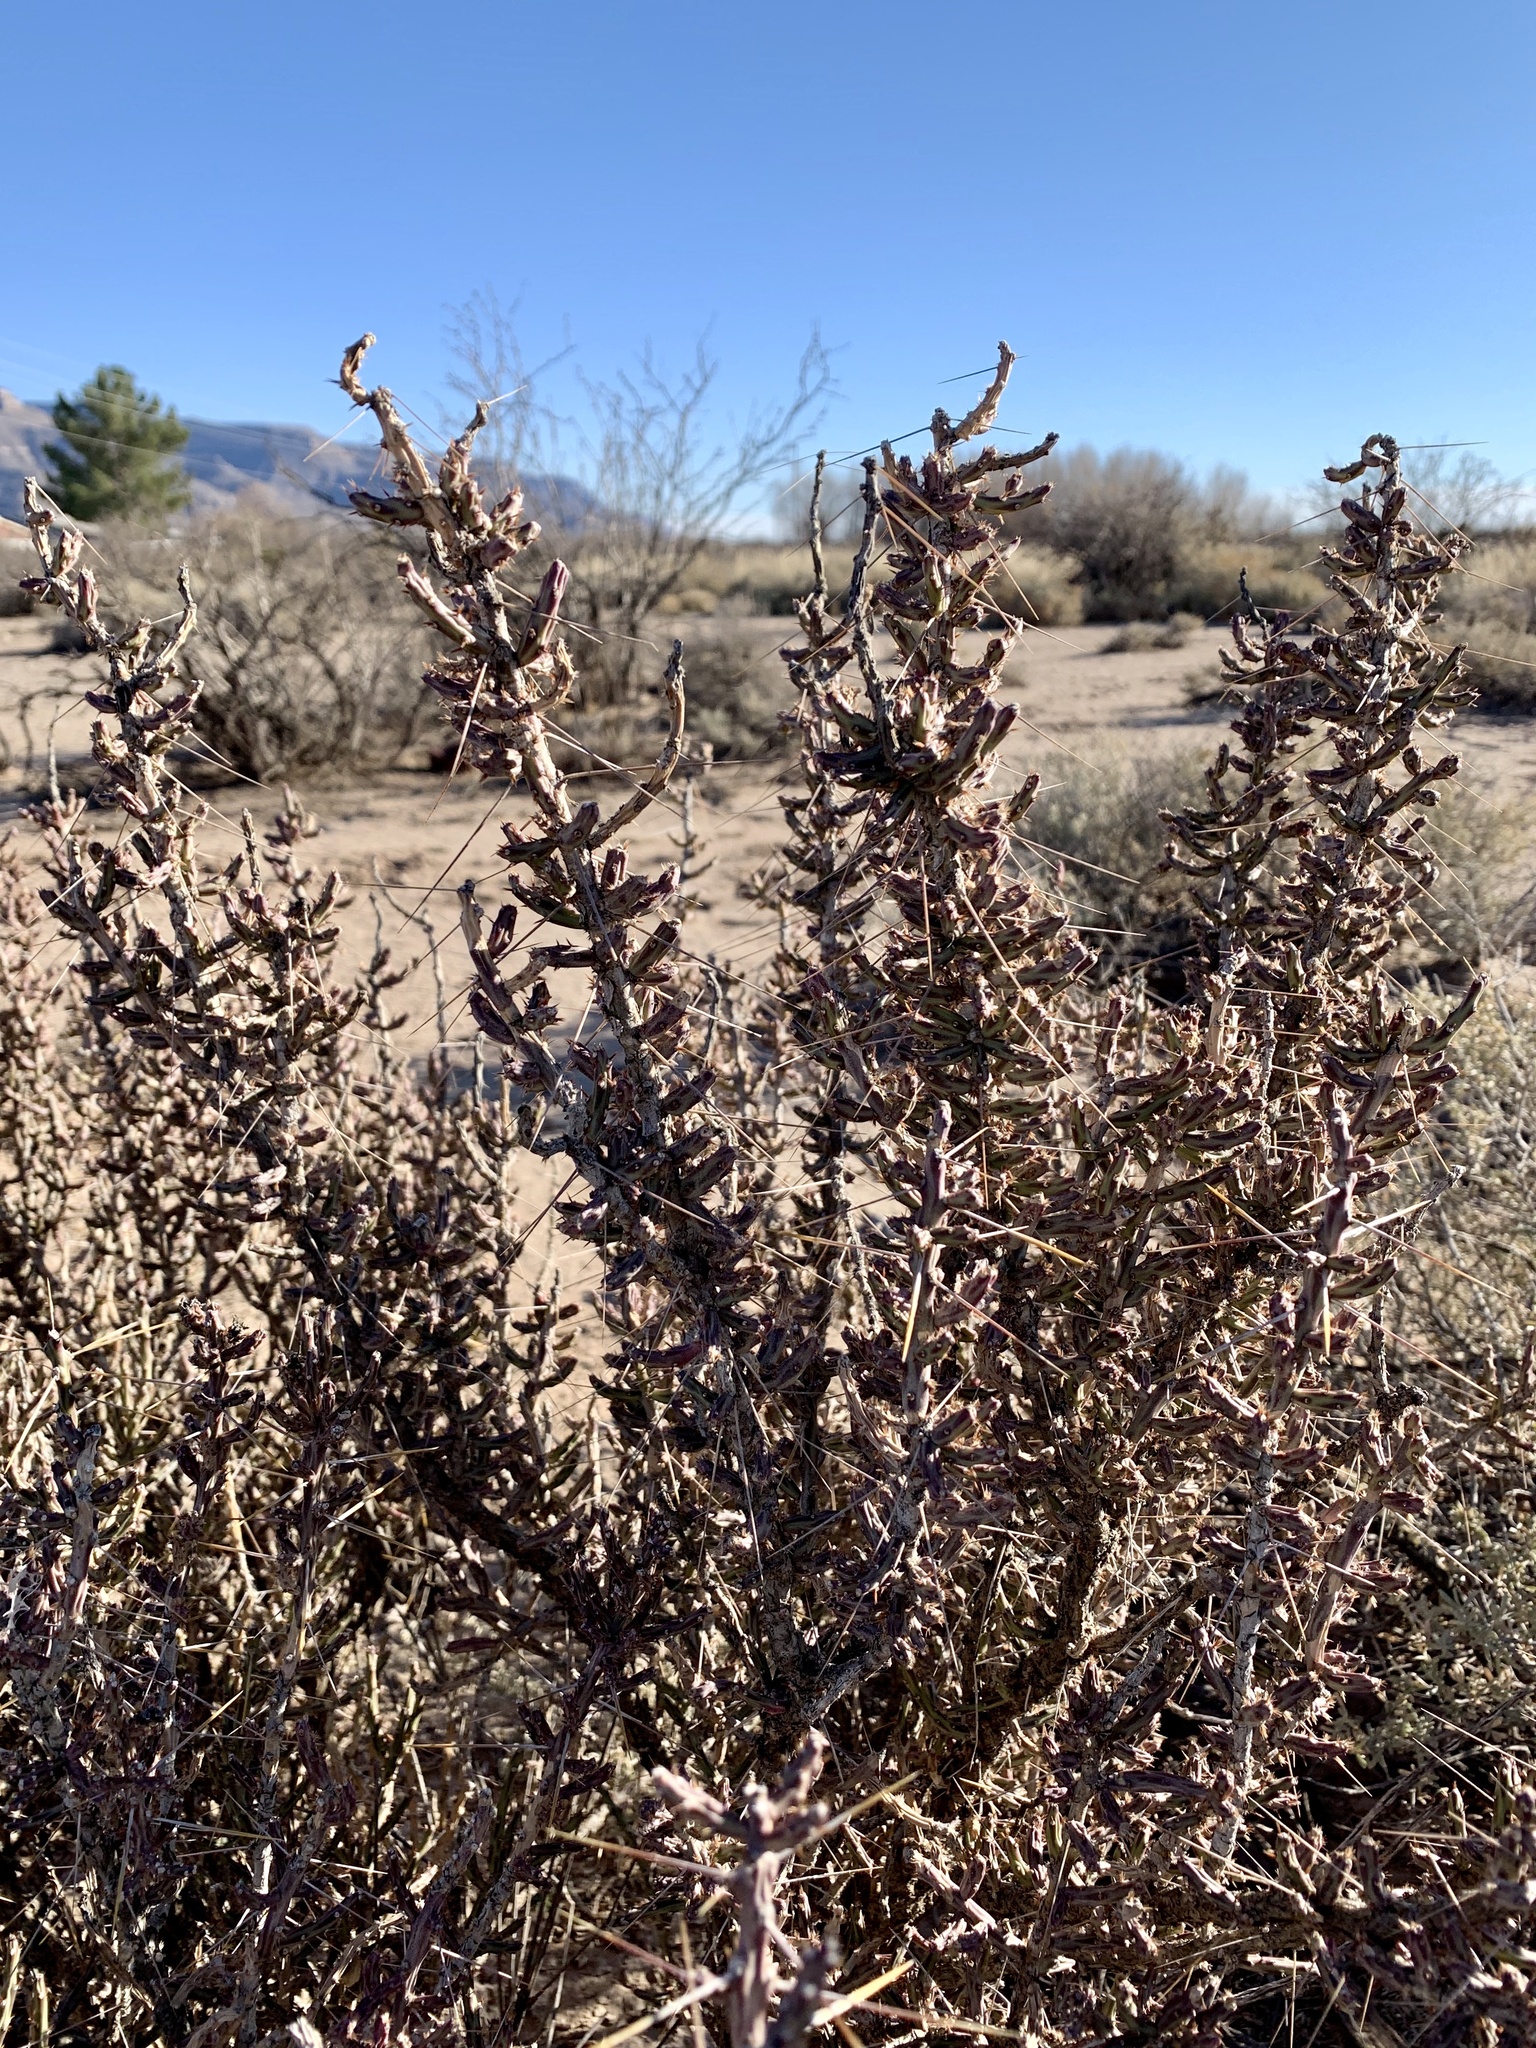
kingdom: Plantae
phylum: Tracheophyta
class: Magnoliopsida
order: Caryophyllales
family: Cactaceae
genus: Cylindropuntia
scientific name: Cylindropuntia leptocaulis
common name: Christmas cactus
